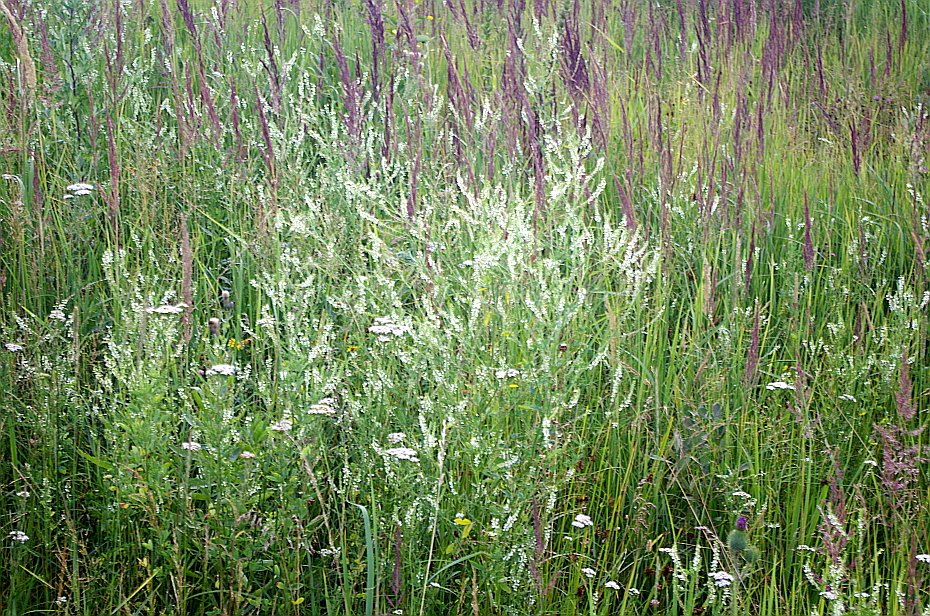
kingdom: Plantae
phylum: Tracheophyta
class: Magnoliopsida
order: Fabales
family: Fabaceae
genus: Melilotus
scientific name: Melilotus albus
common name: White melilot
